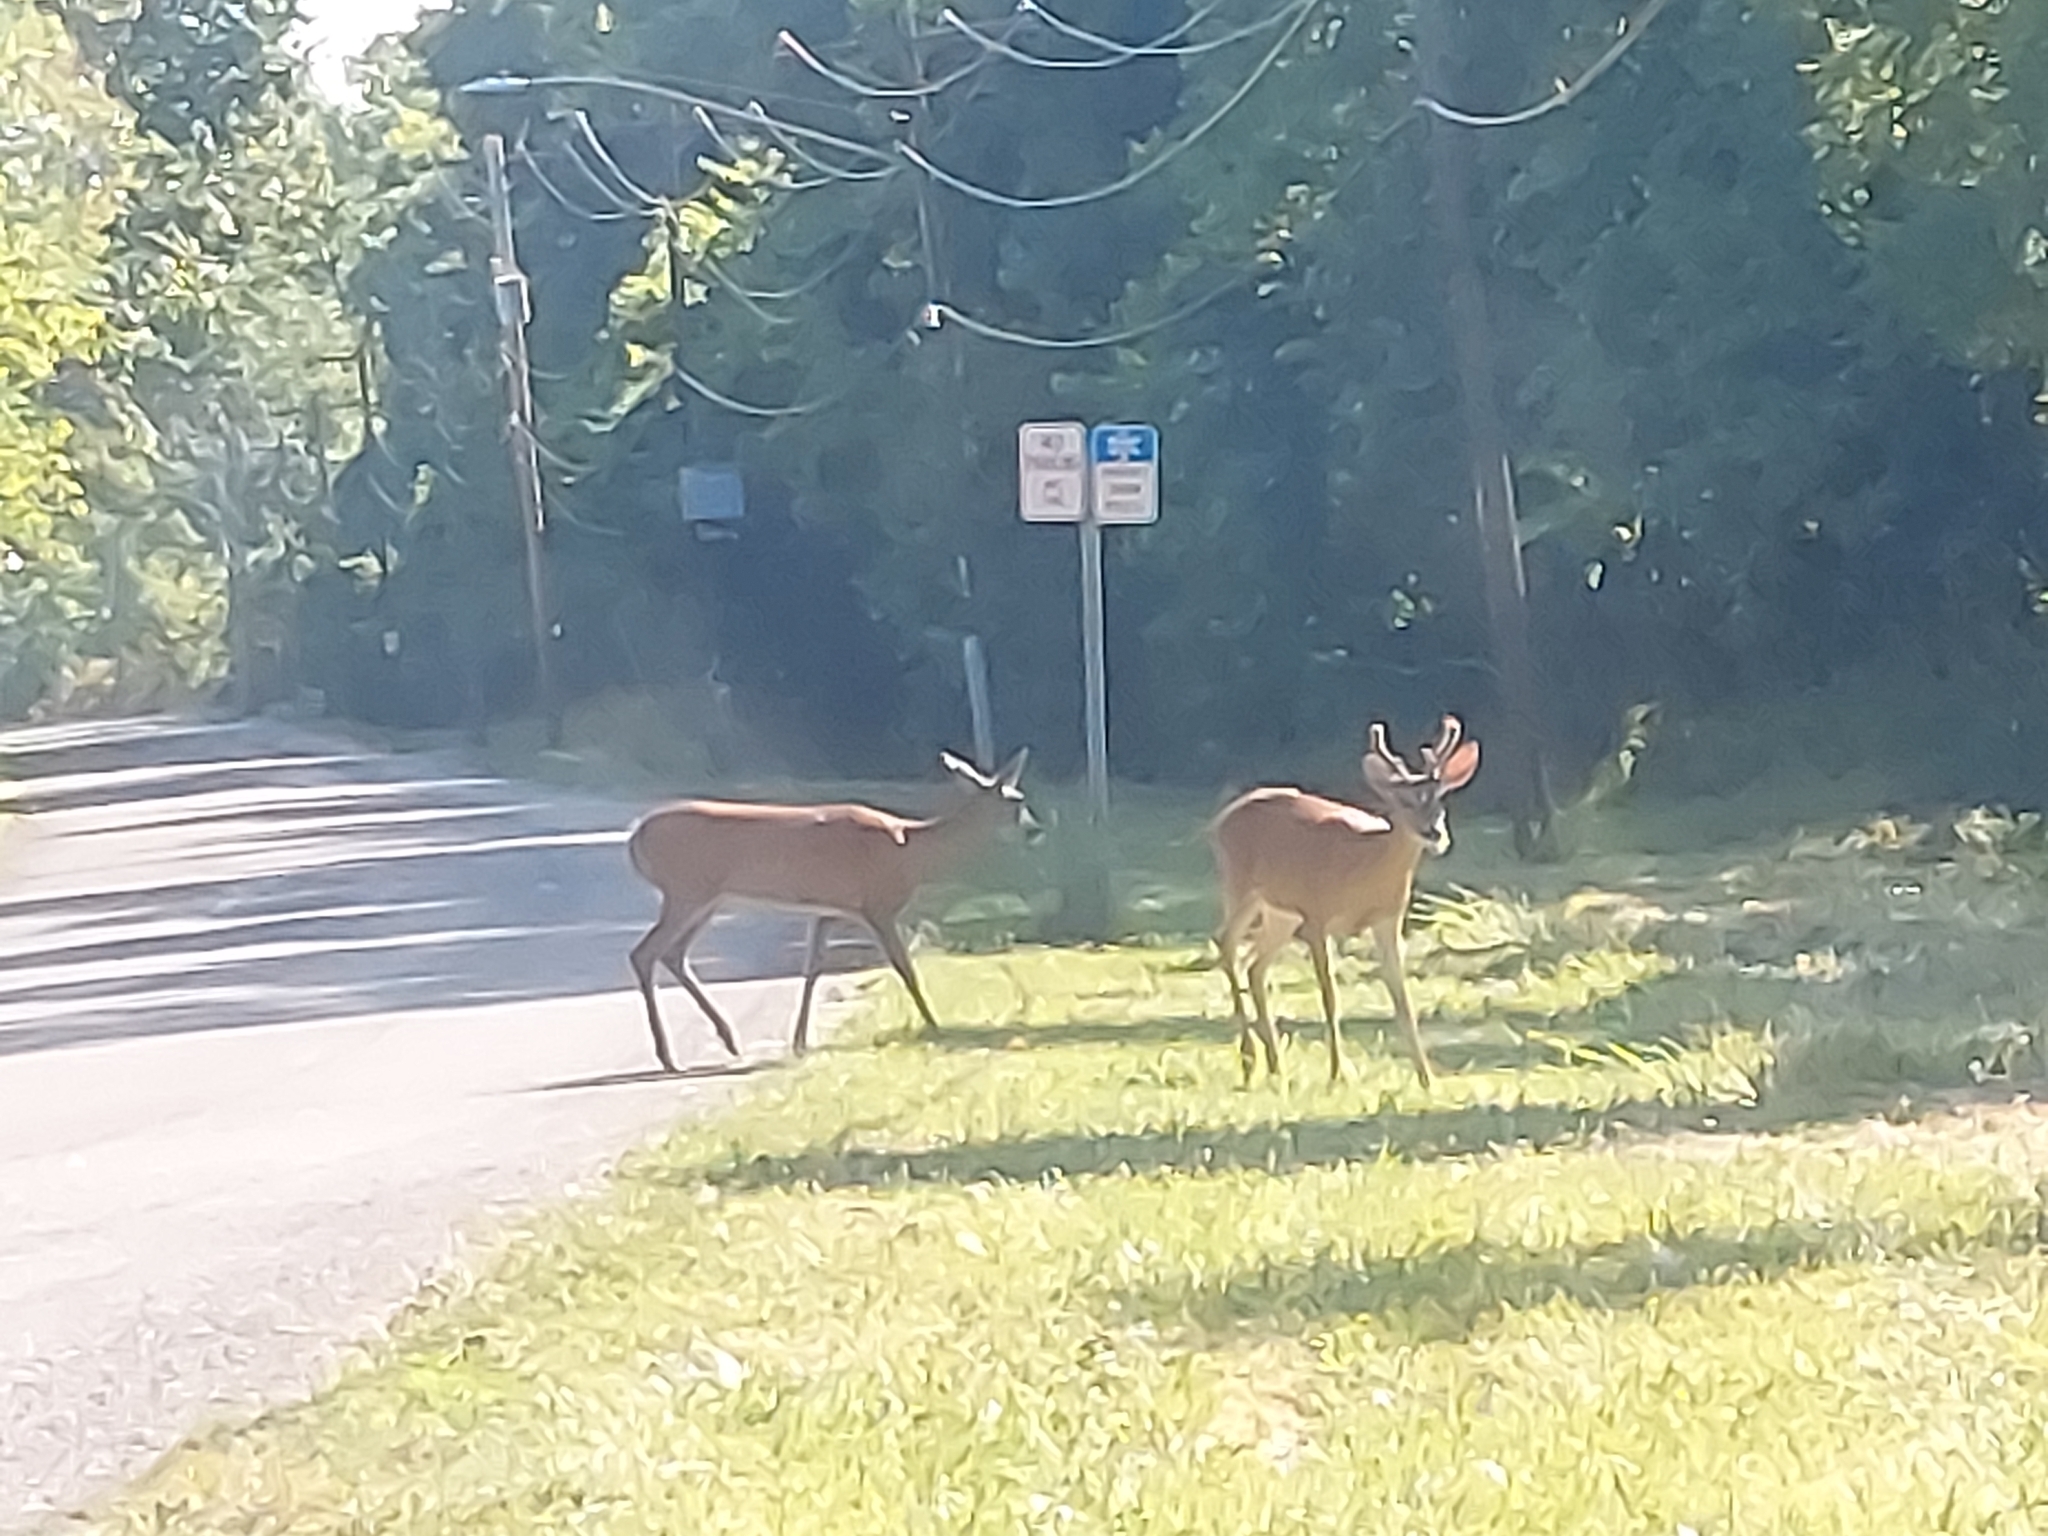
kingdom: Animalia
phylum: Chordata
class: Mammalia
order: Artiodactyla
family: Cervidae
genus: Odocoileus
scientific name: Odocoileus virginianus
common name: White-tailed deer
